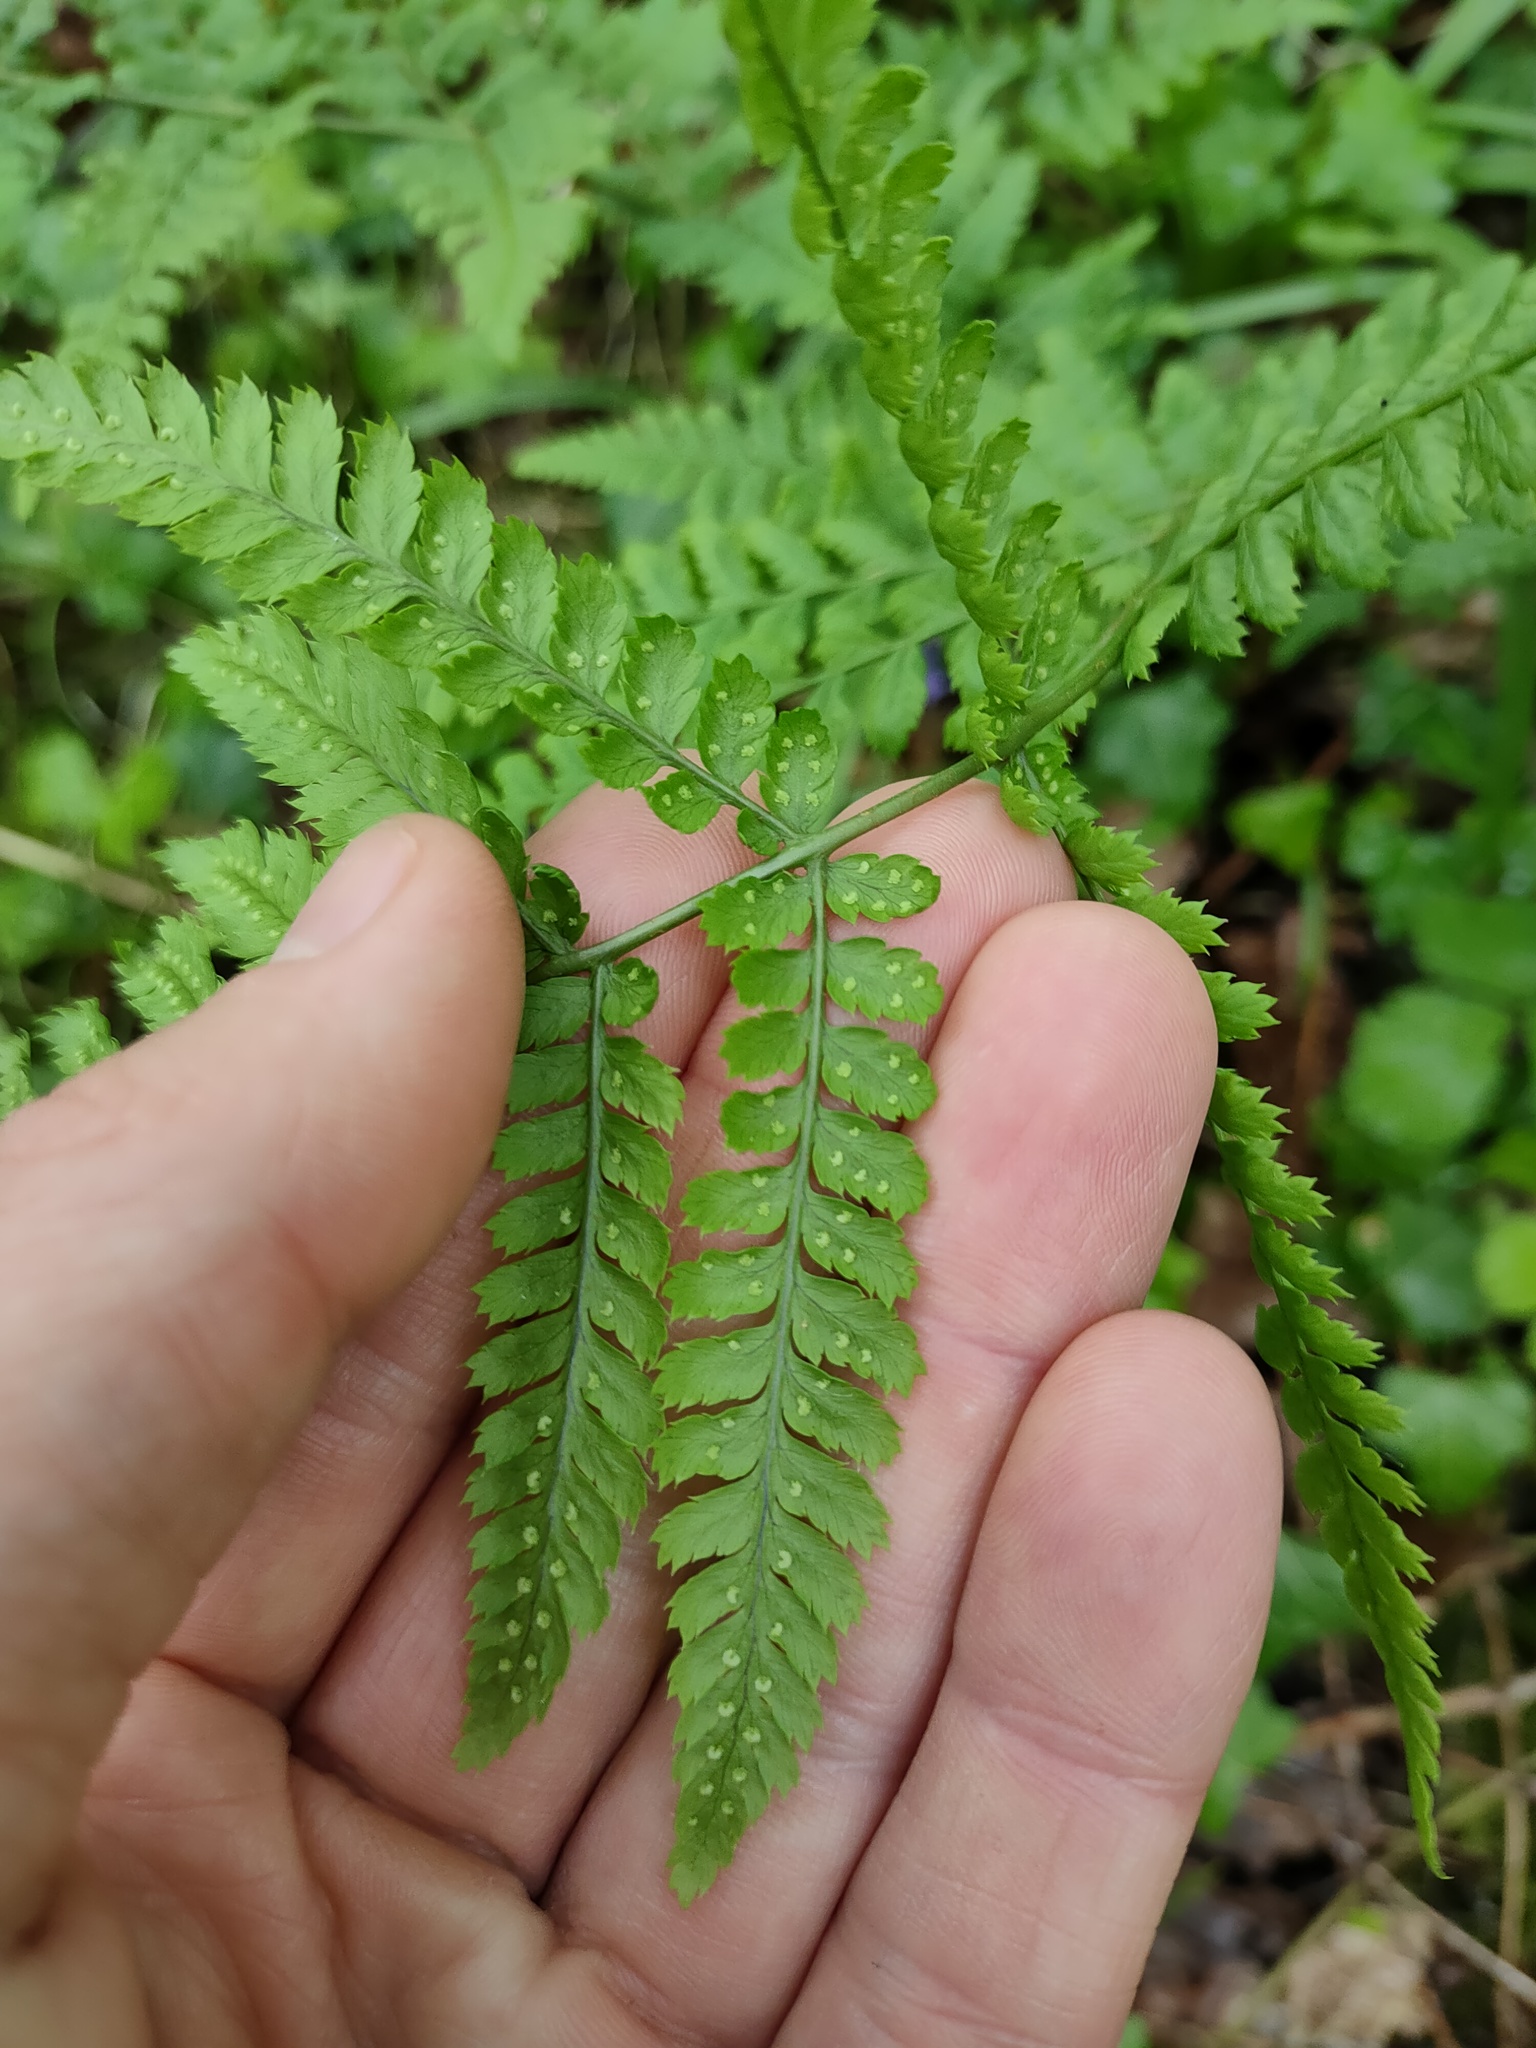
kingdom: Plantae
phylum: Tracheophyta
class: Polypodiopsida
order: Polypodiales
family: Dryopteridaceae
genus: Dryopteris
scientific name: Dryopteris dilatata
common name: Broad buckler-fern
